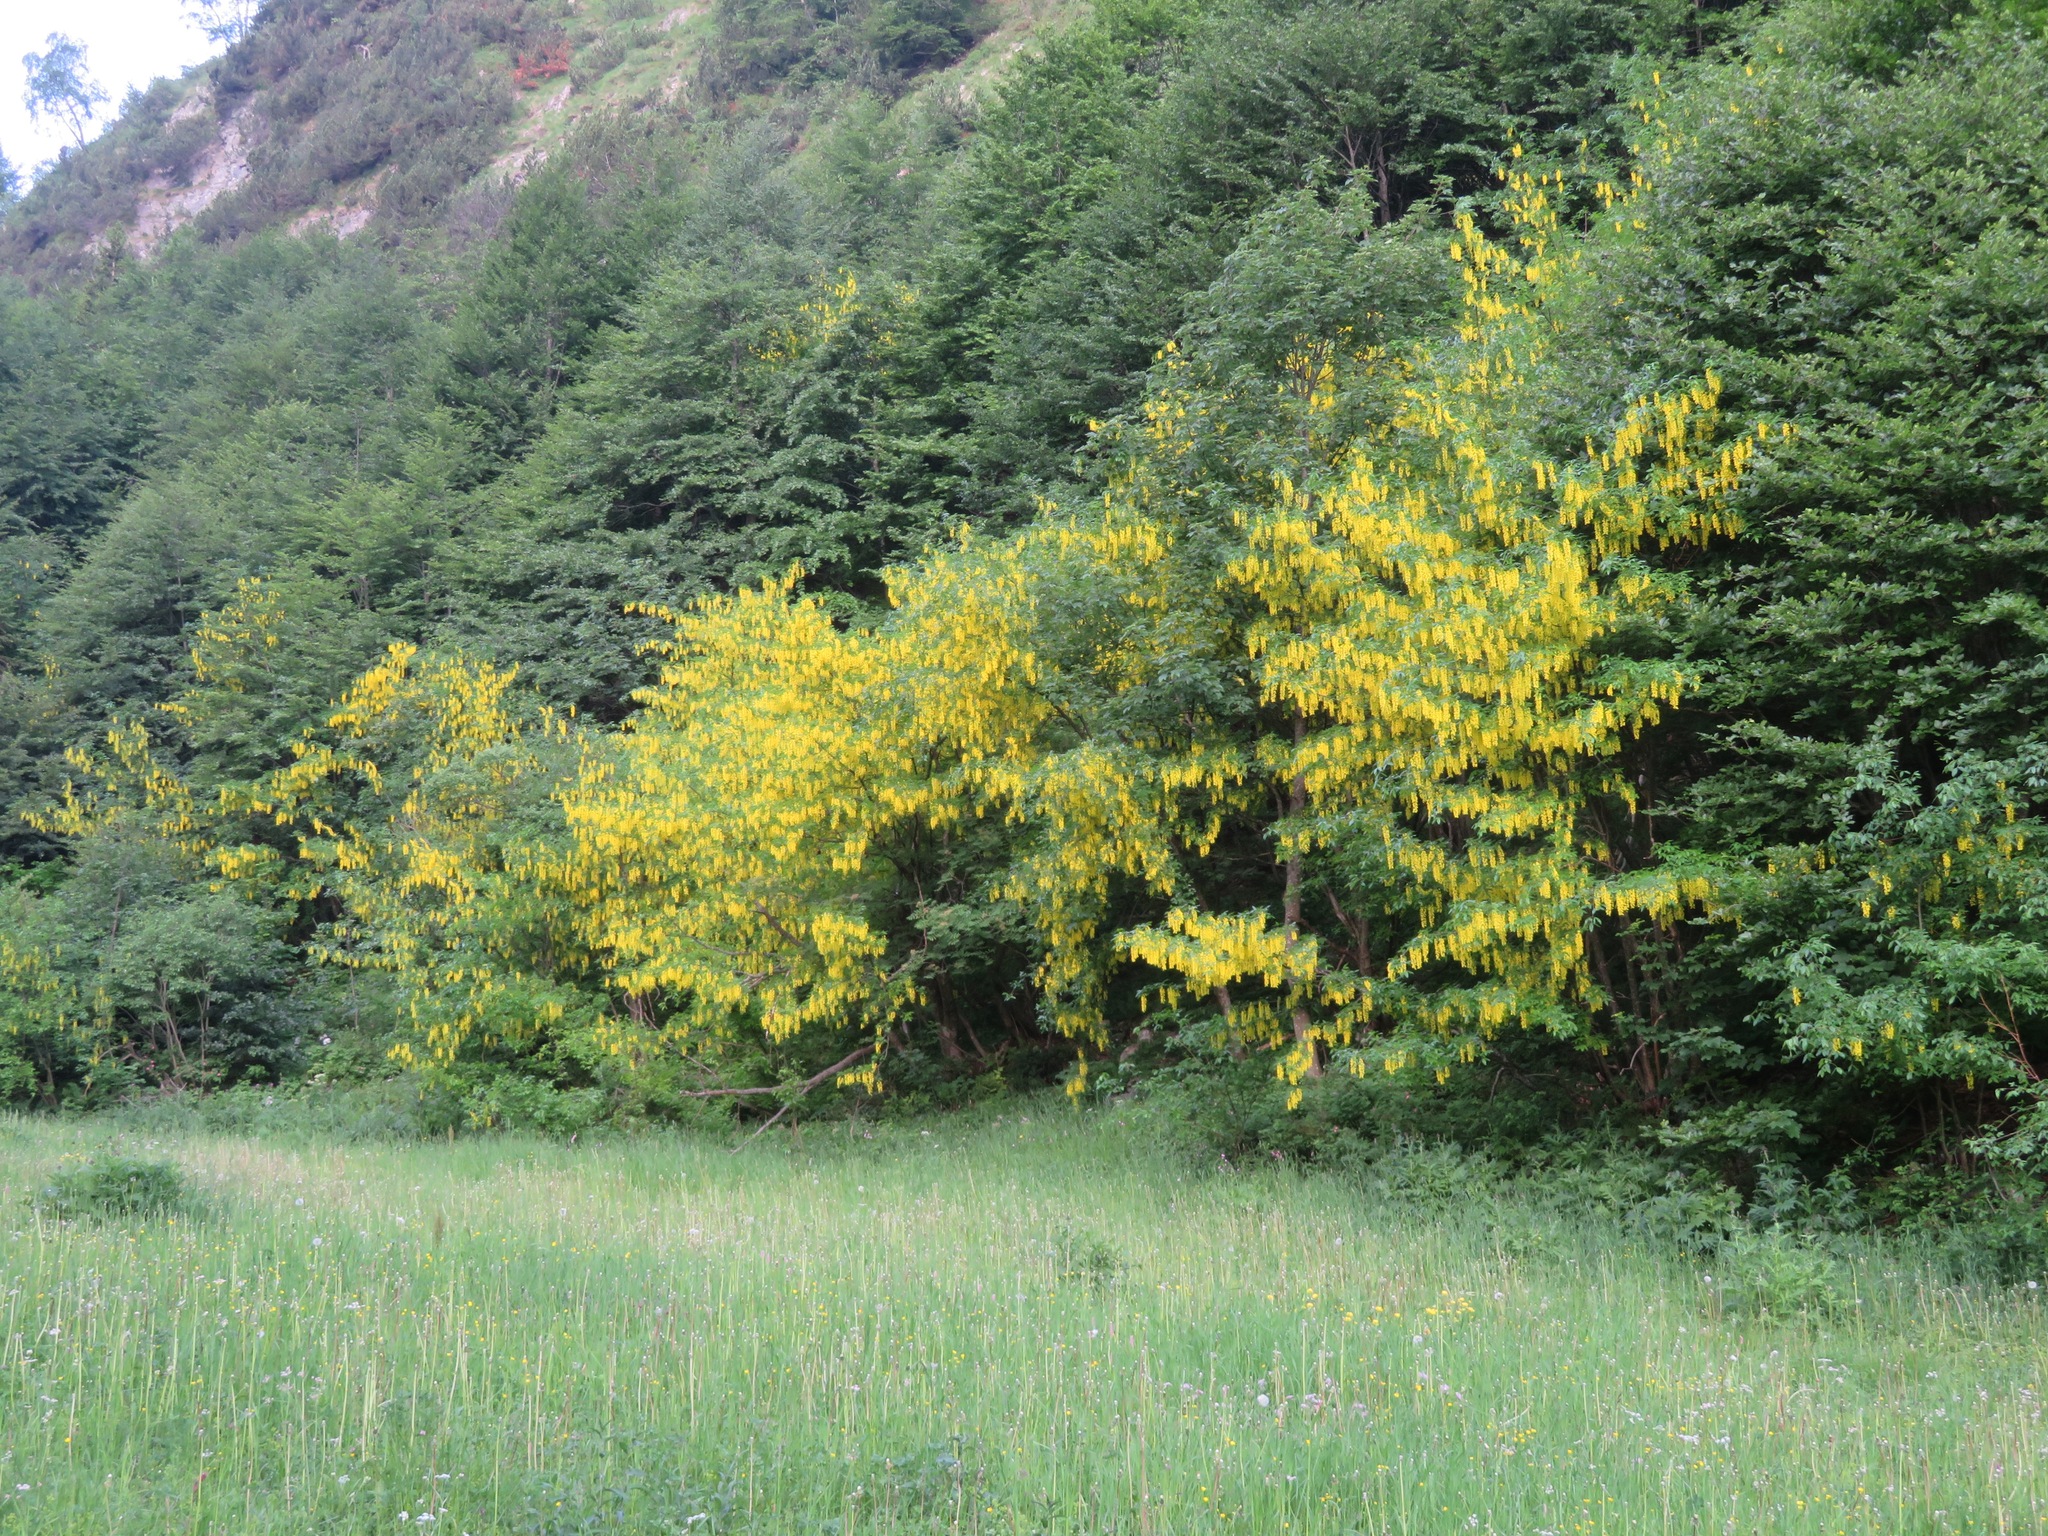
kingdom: Plantae
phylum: Tracheophyta
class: Magnoliopsida
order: Fabales
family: Fabaceae
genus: Laburnum
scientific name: Laburnum alpinum
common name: Scottish laburnum
